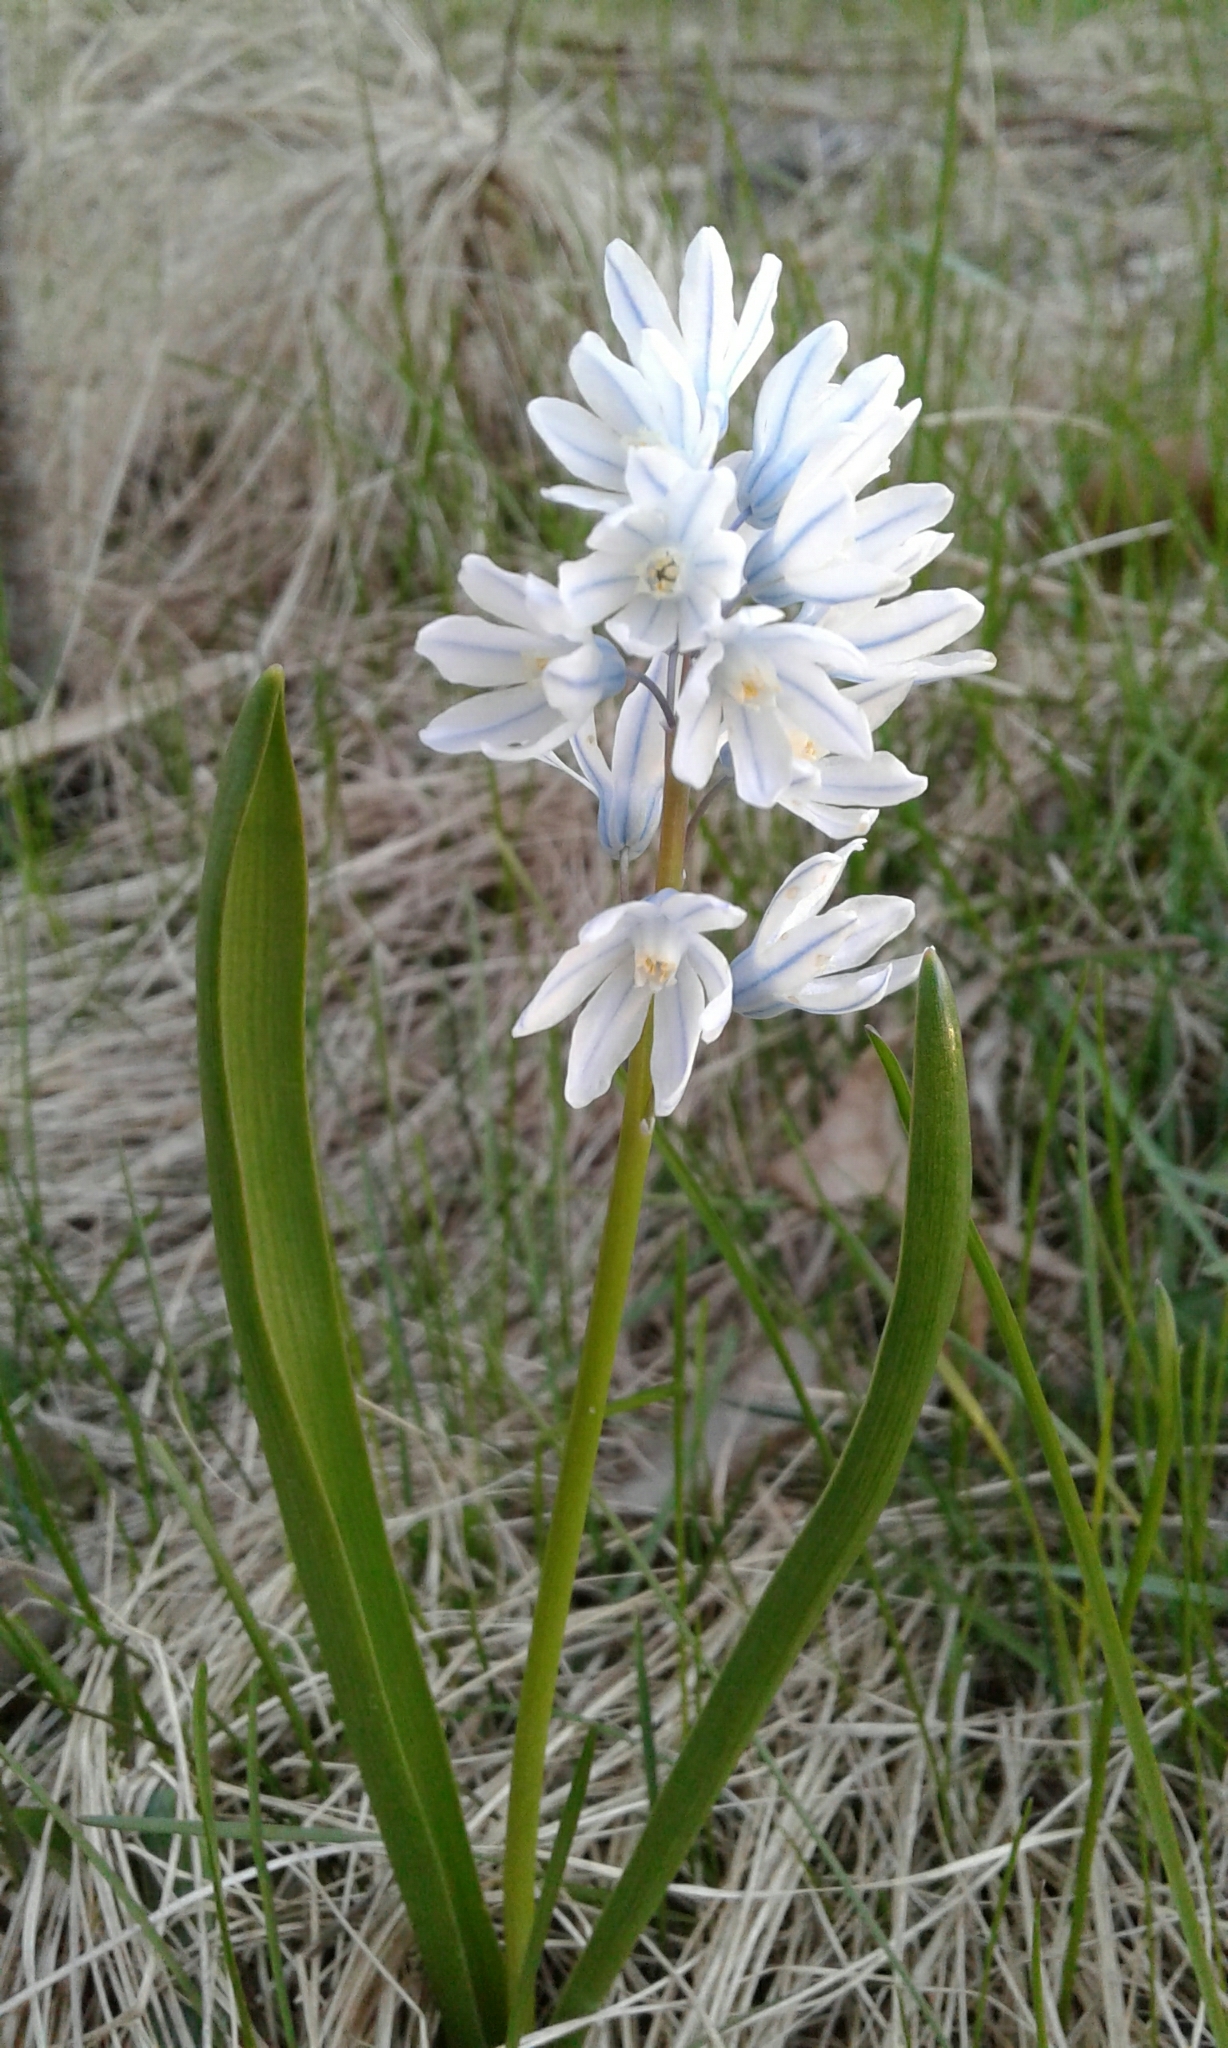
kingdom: Plantae
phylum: Tracheophyta
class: Liliopsida
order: Asparagales
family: Asparagaceae
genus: Puschkinia
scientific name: Puschkinia scilloides
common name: Striped squill
